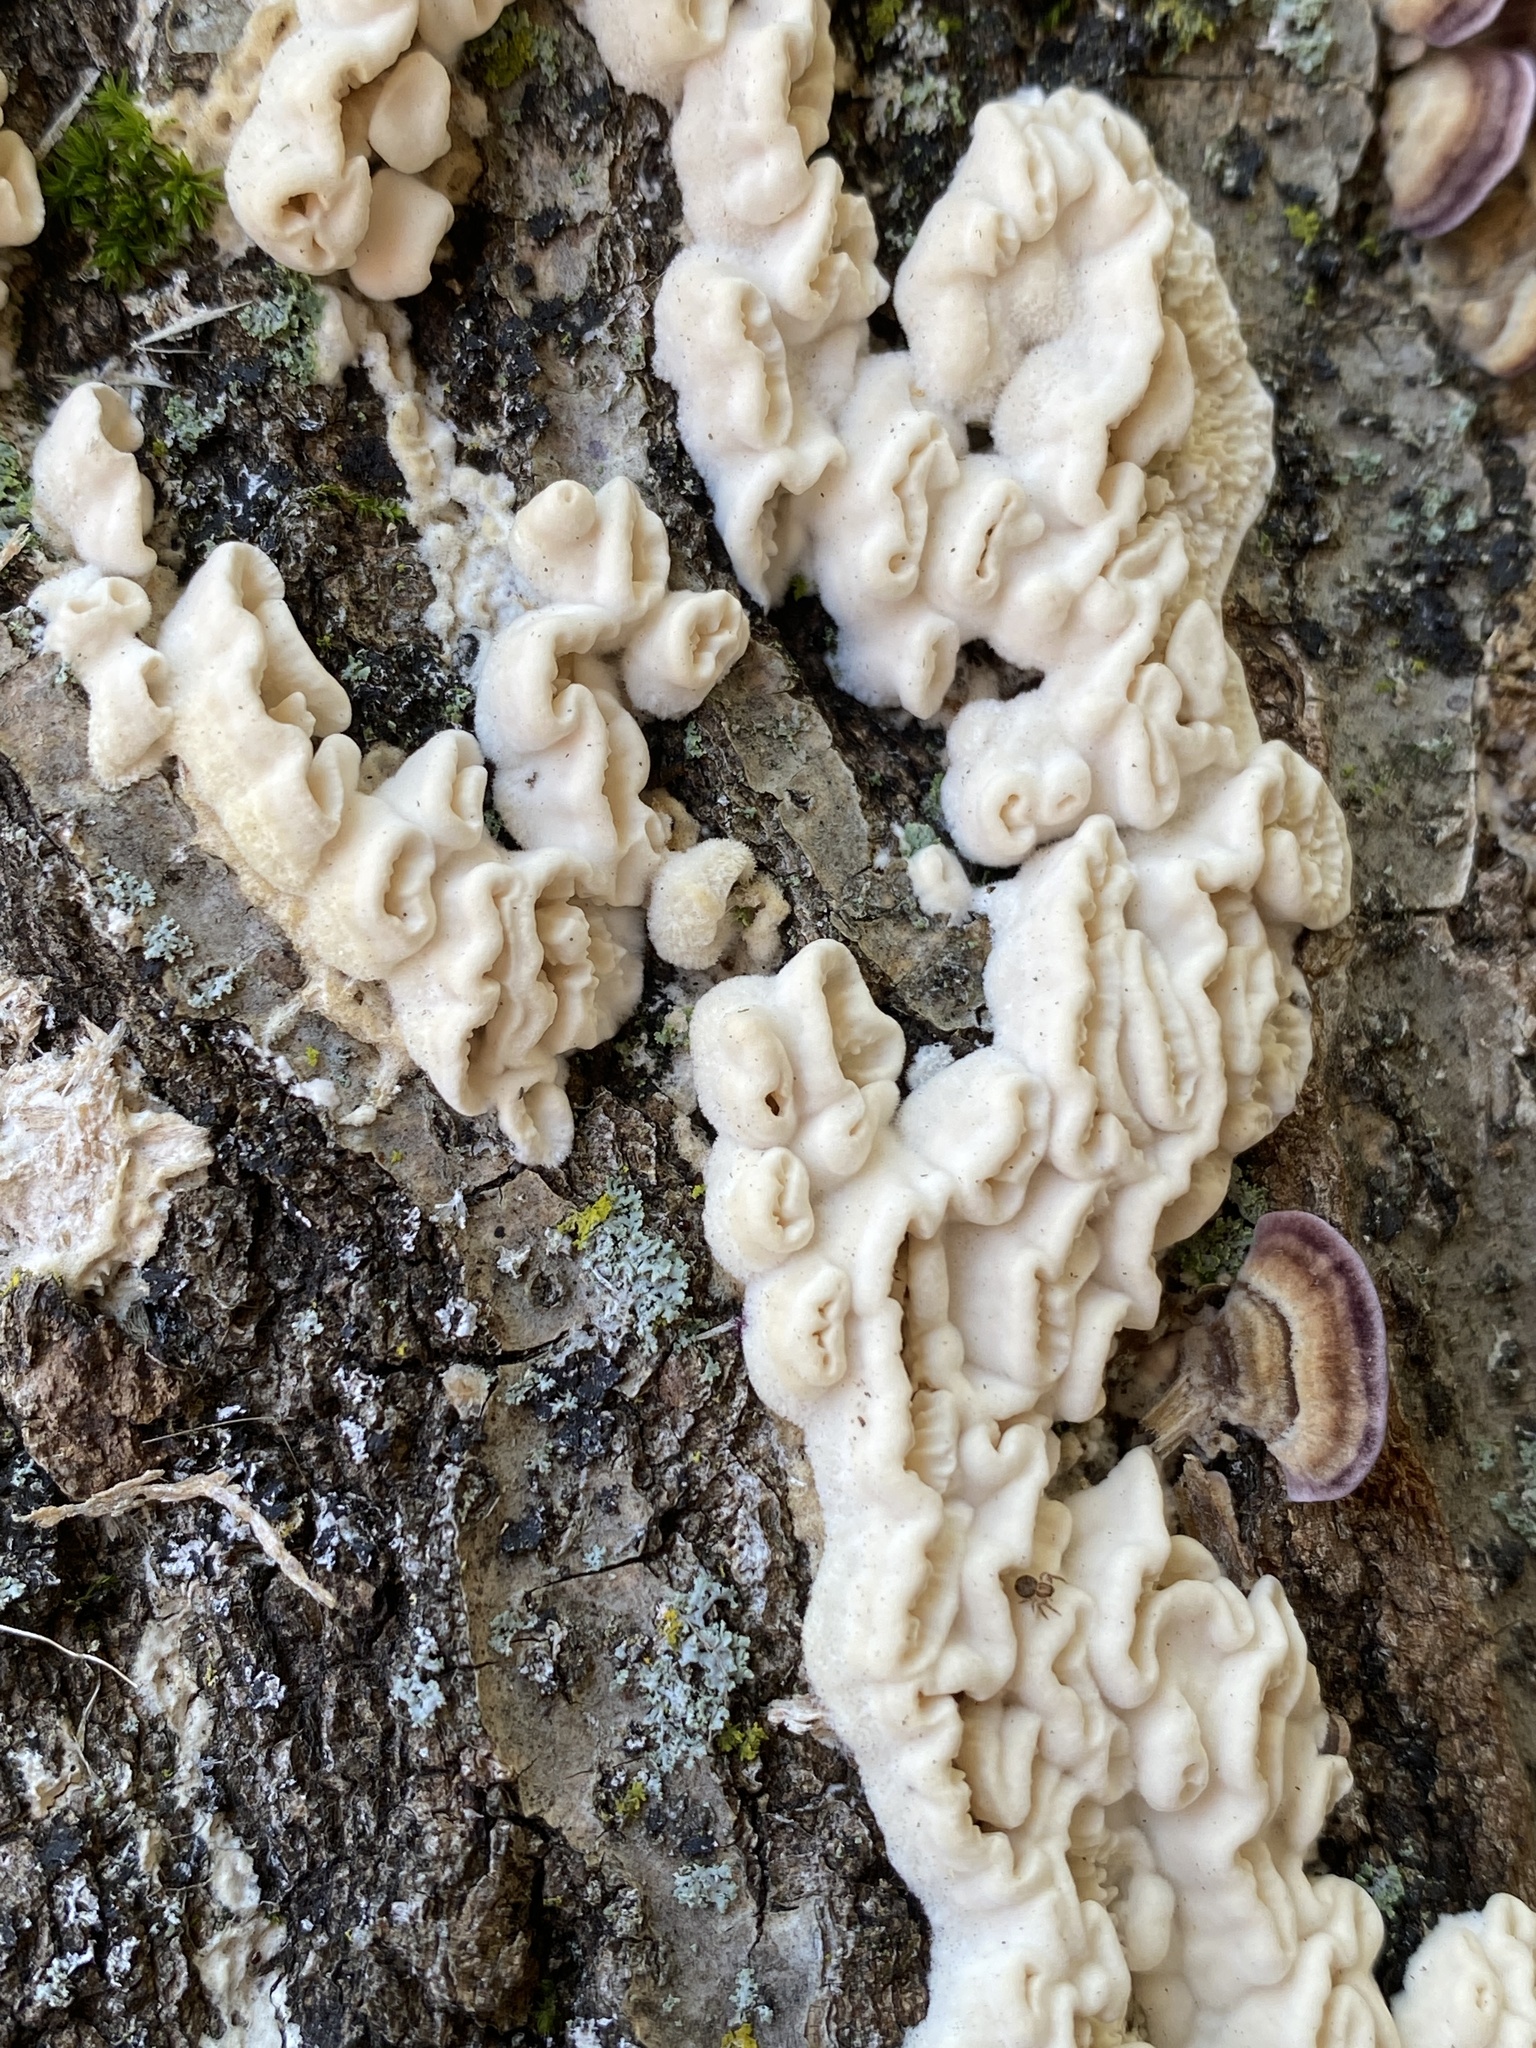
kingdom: Fungi
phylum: Basidiomycota
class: Agaricomycetes
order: Polyporales
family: Meruliaceae
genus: Irpiciporus
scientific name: Irpiciporus pachyodon
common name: Marshmallow polypore
